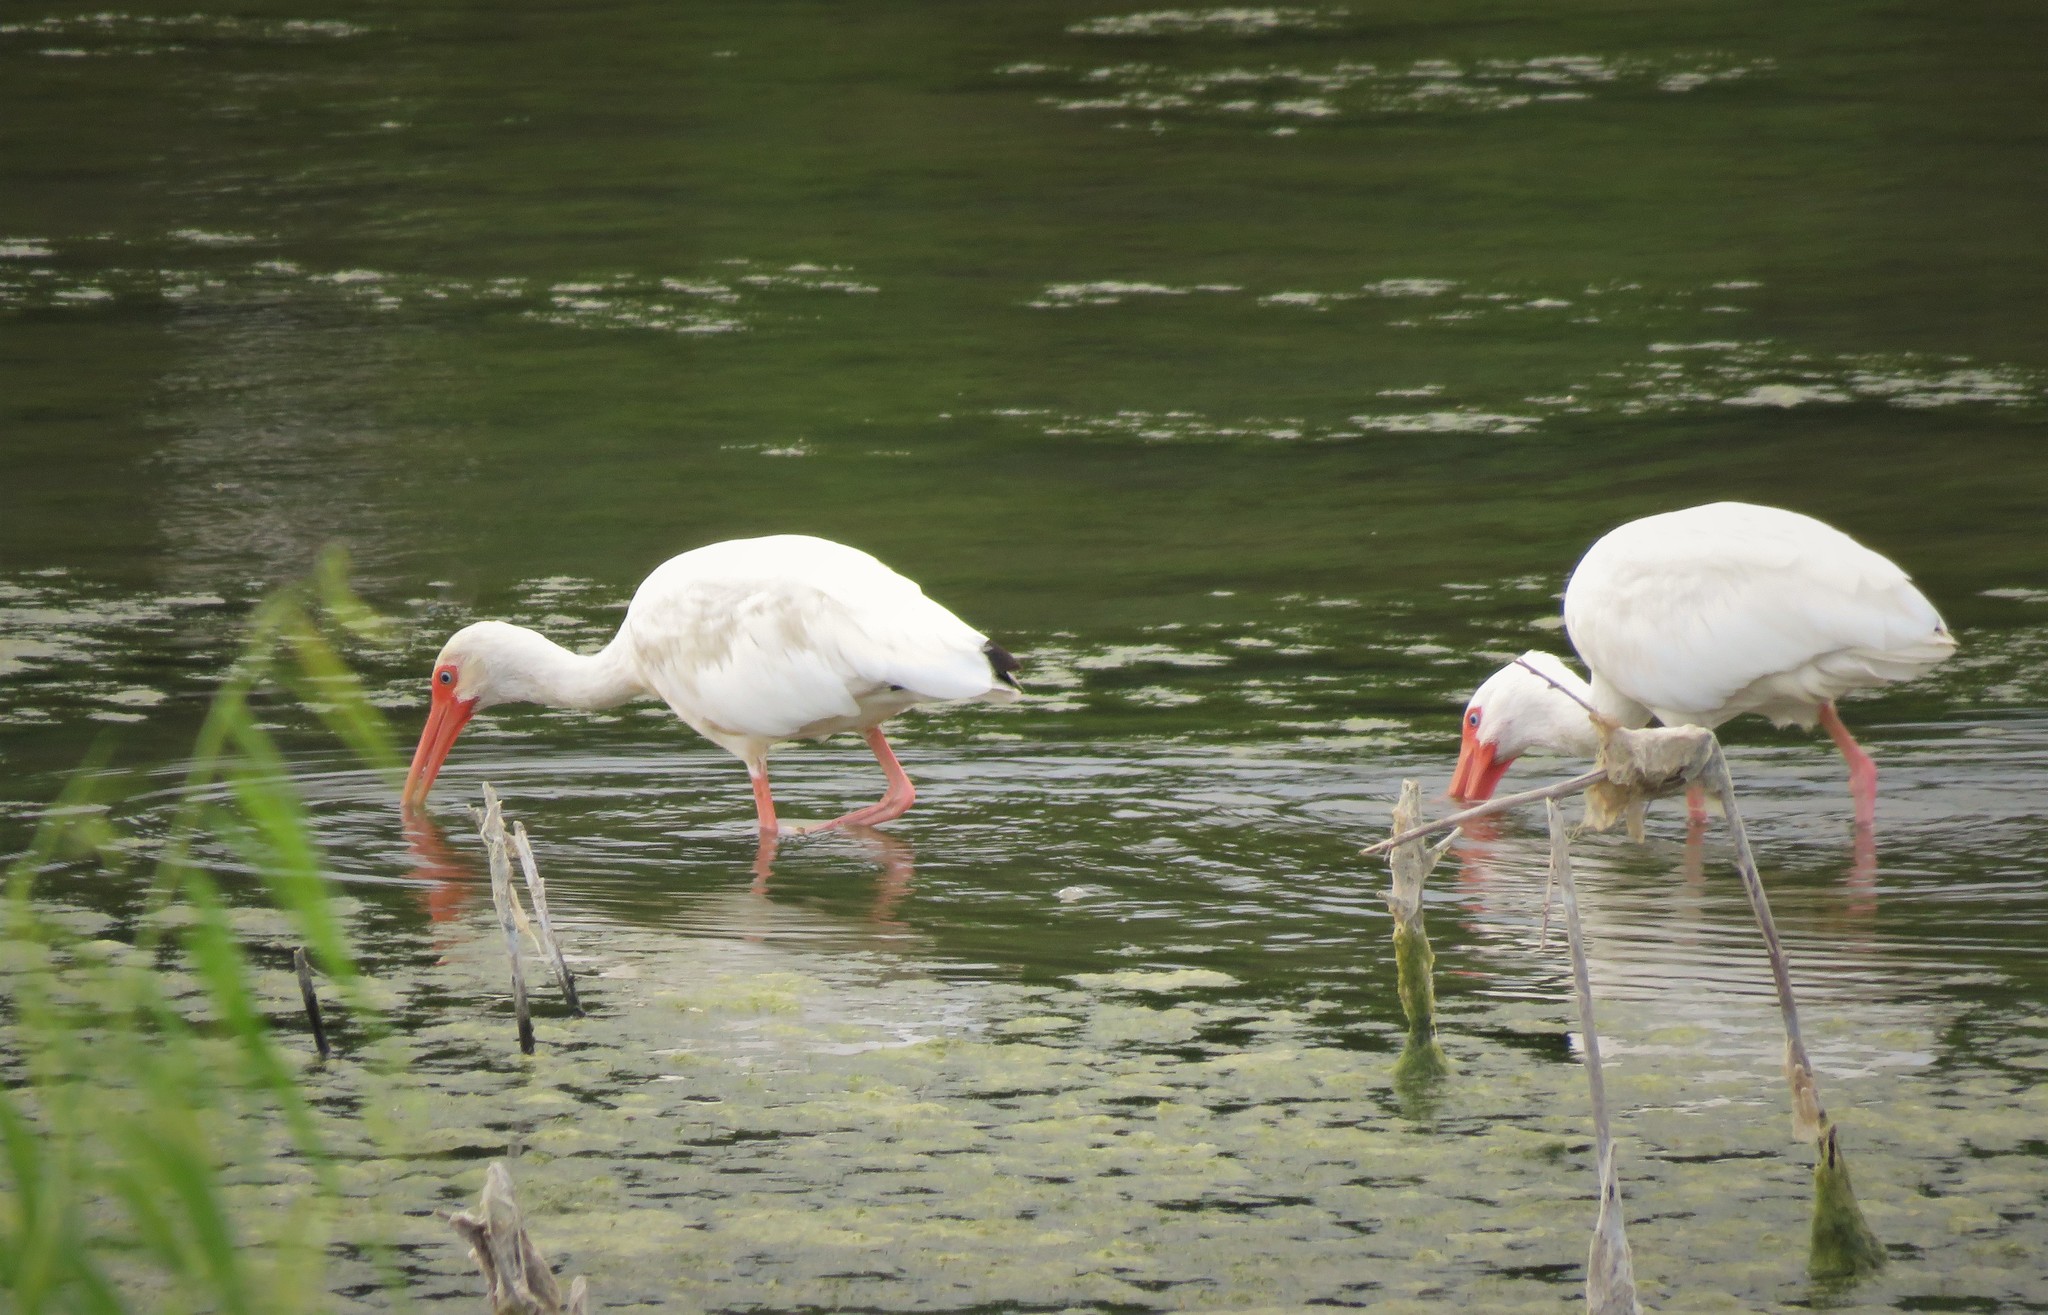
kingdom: Animalia
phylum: Chordata
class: Aves
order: Pelecaniformes
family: Threskiornithidae
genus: Eudocimus
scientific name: Eudocimus albus
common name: White ibis
